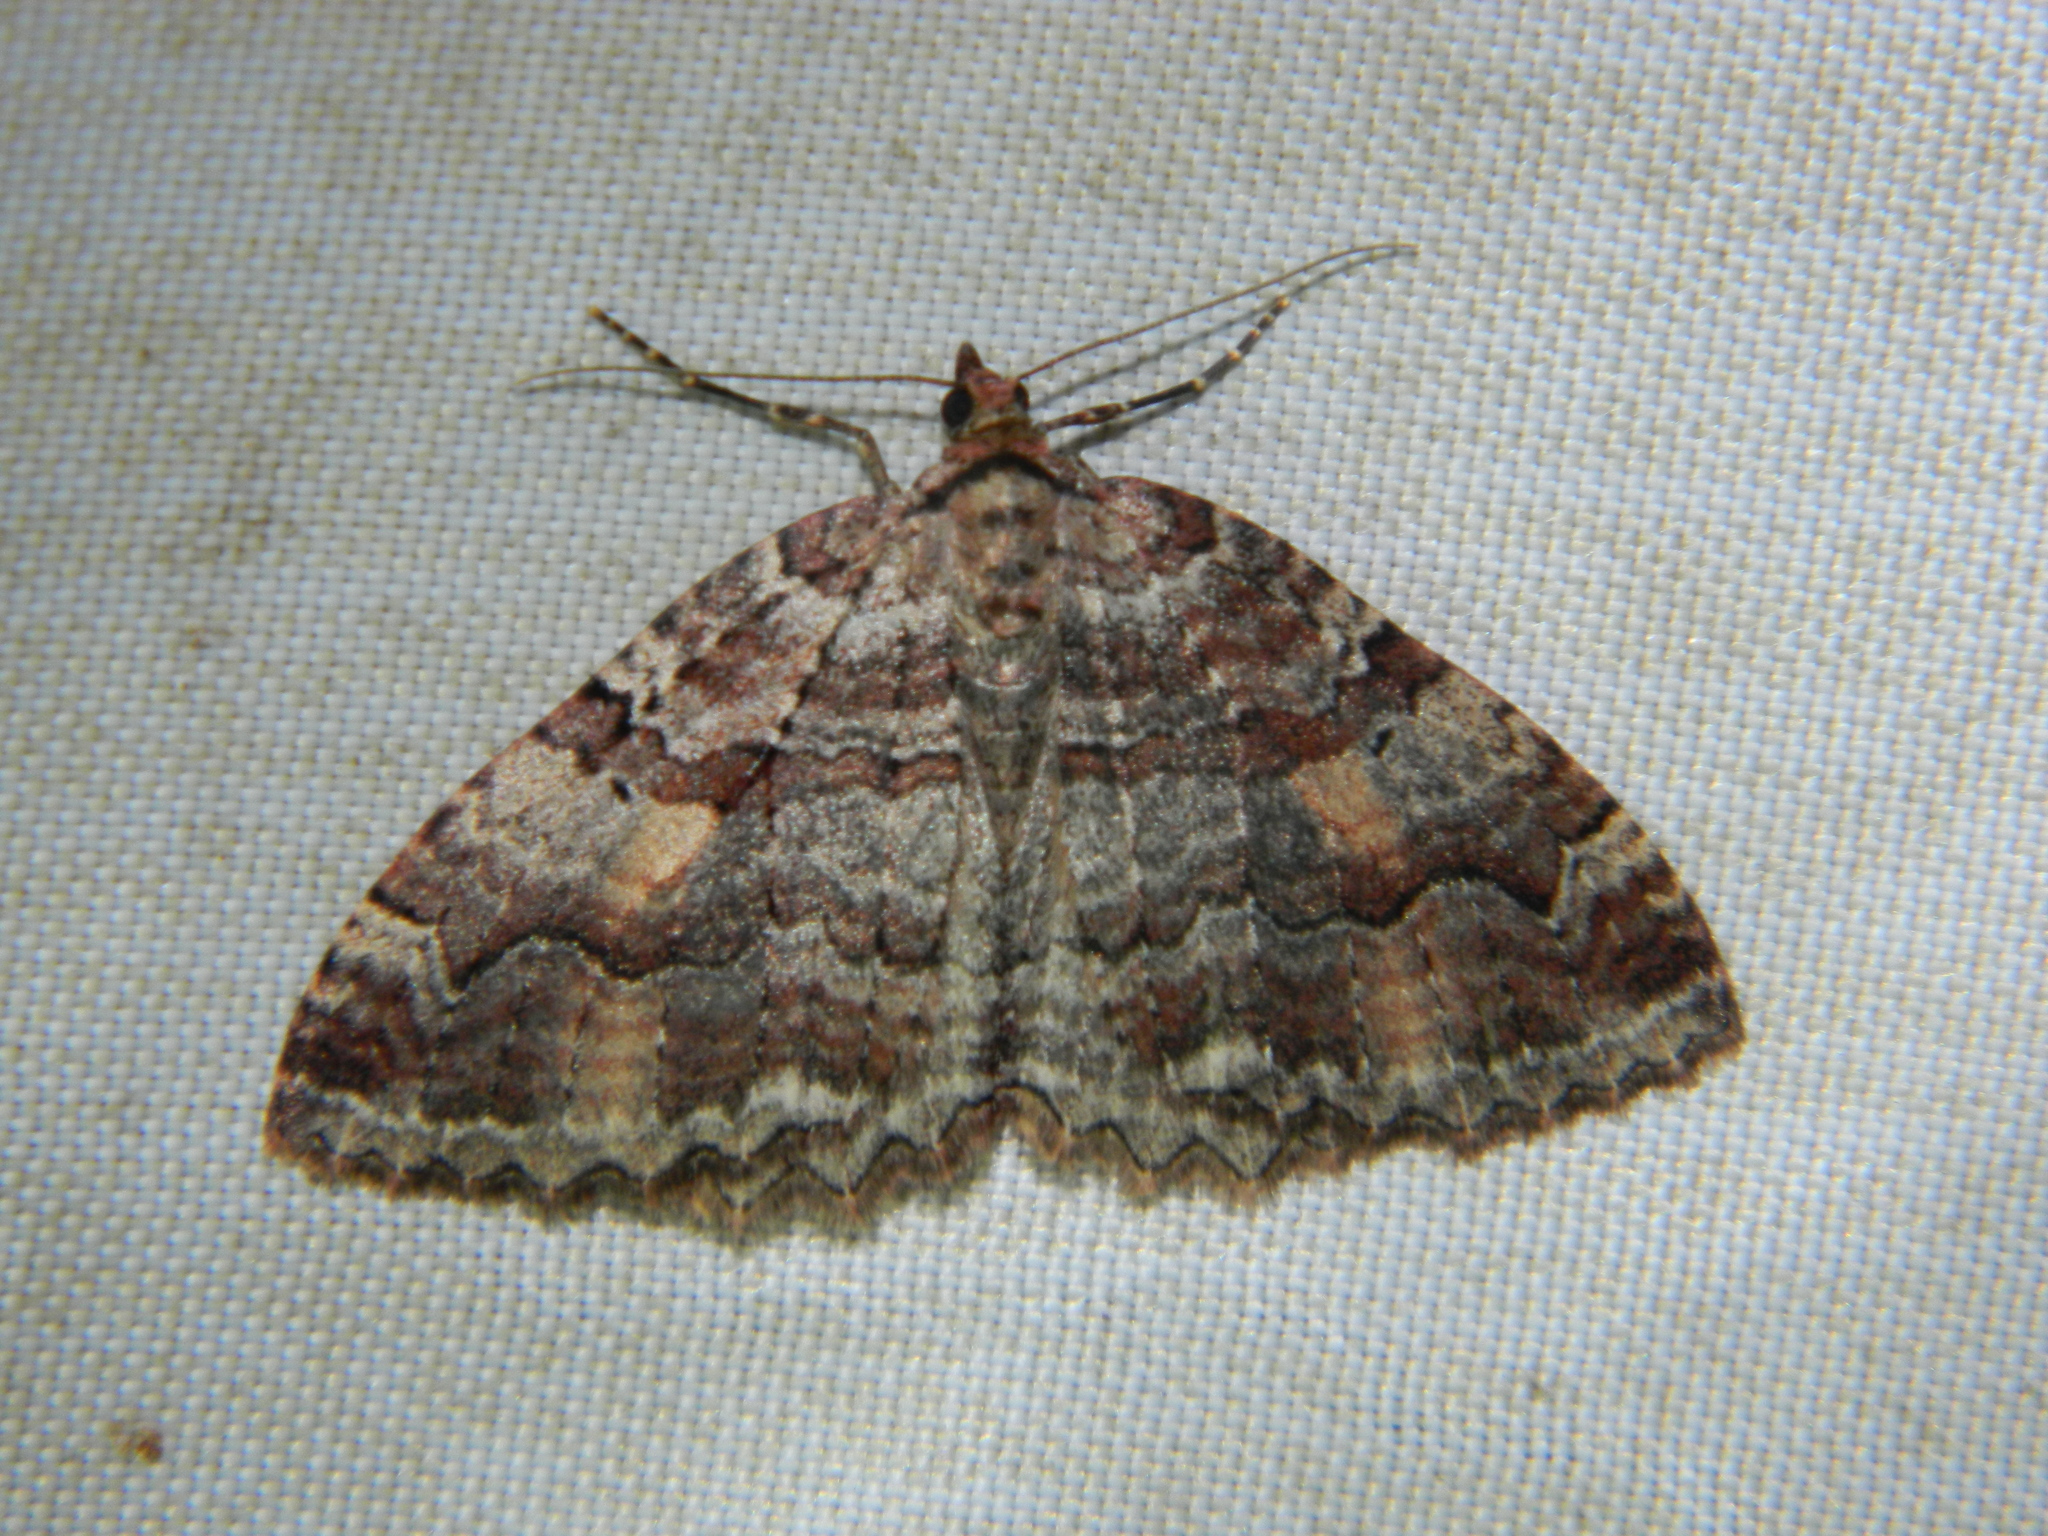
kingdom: Animalia
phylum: Arthropoda
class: Insecta
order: Lepidoptera
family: Geometridae
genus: Triphosa
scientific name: Triphosa haesitata
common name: Tissue moth
